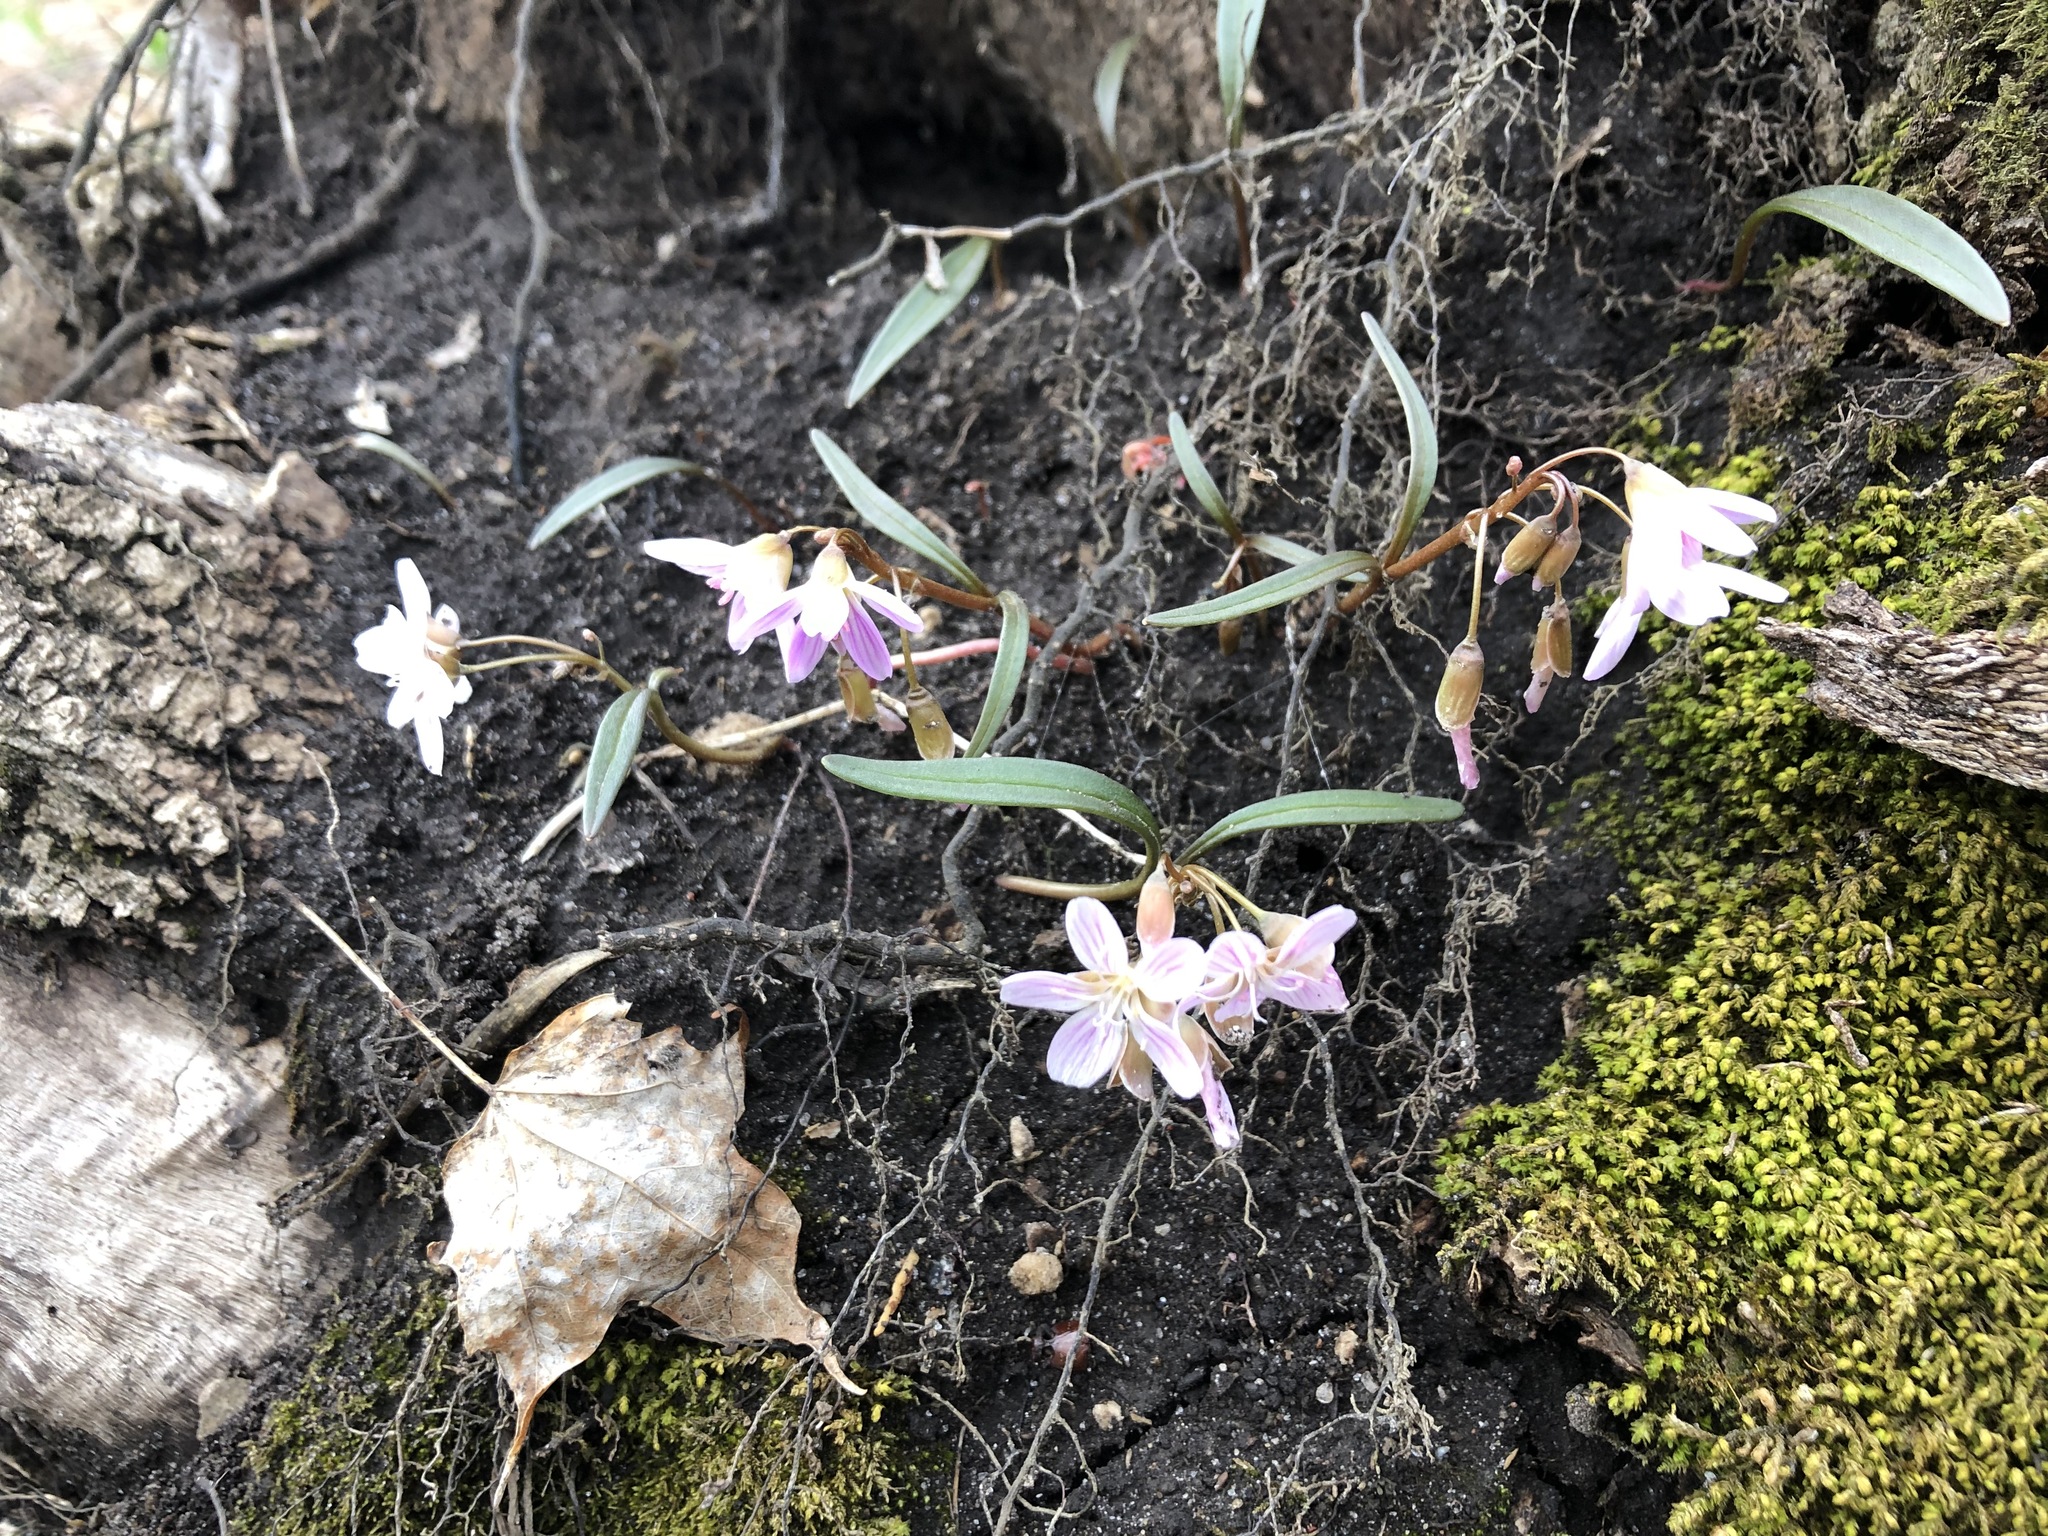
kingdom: Plantae
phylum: Tracheophyta
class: Magnoliopsida
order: Caryophyllales
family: Montiaceae
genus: Claytonia
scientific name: Claytonia virginica
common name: Virginia springbeauty
